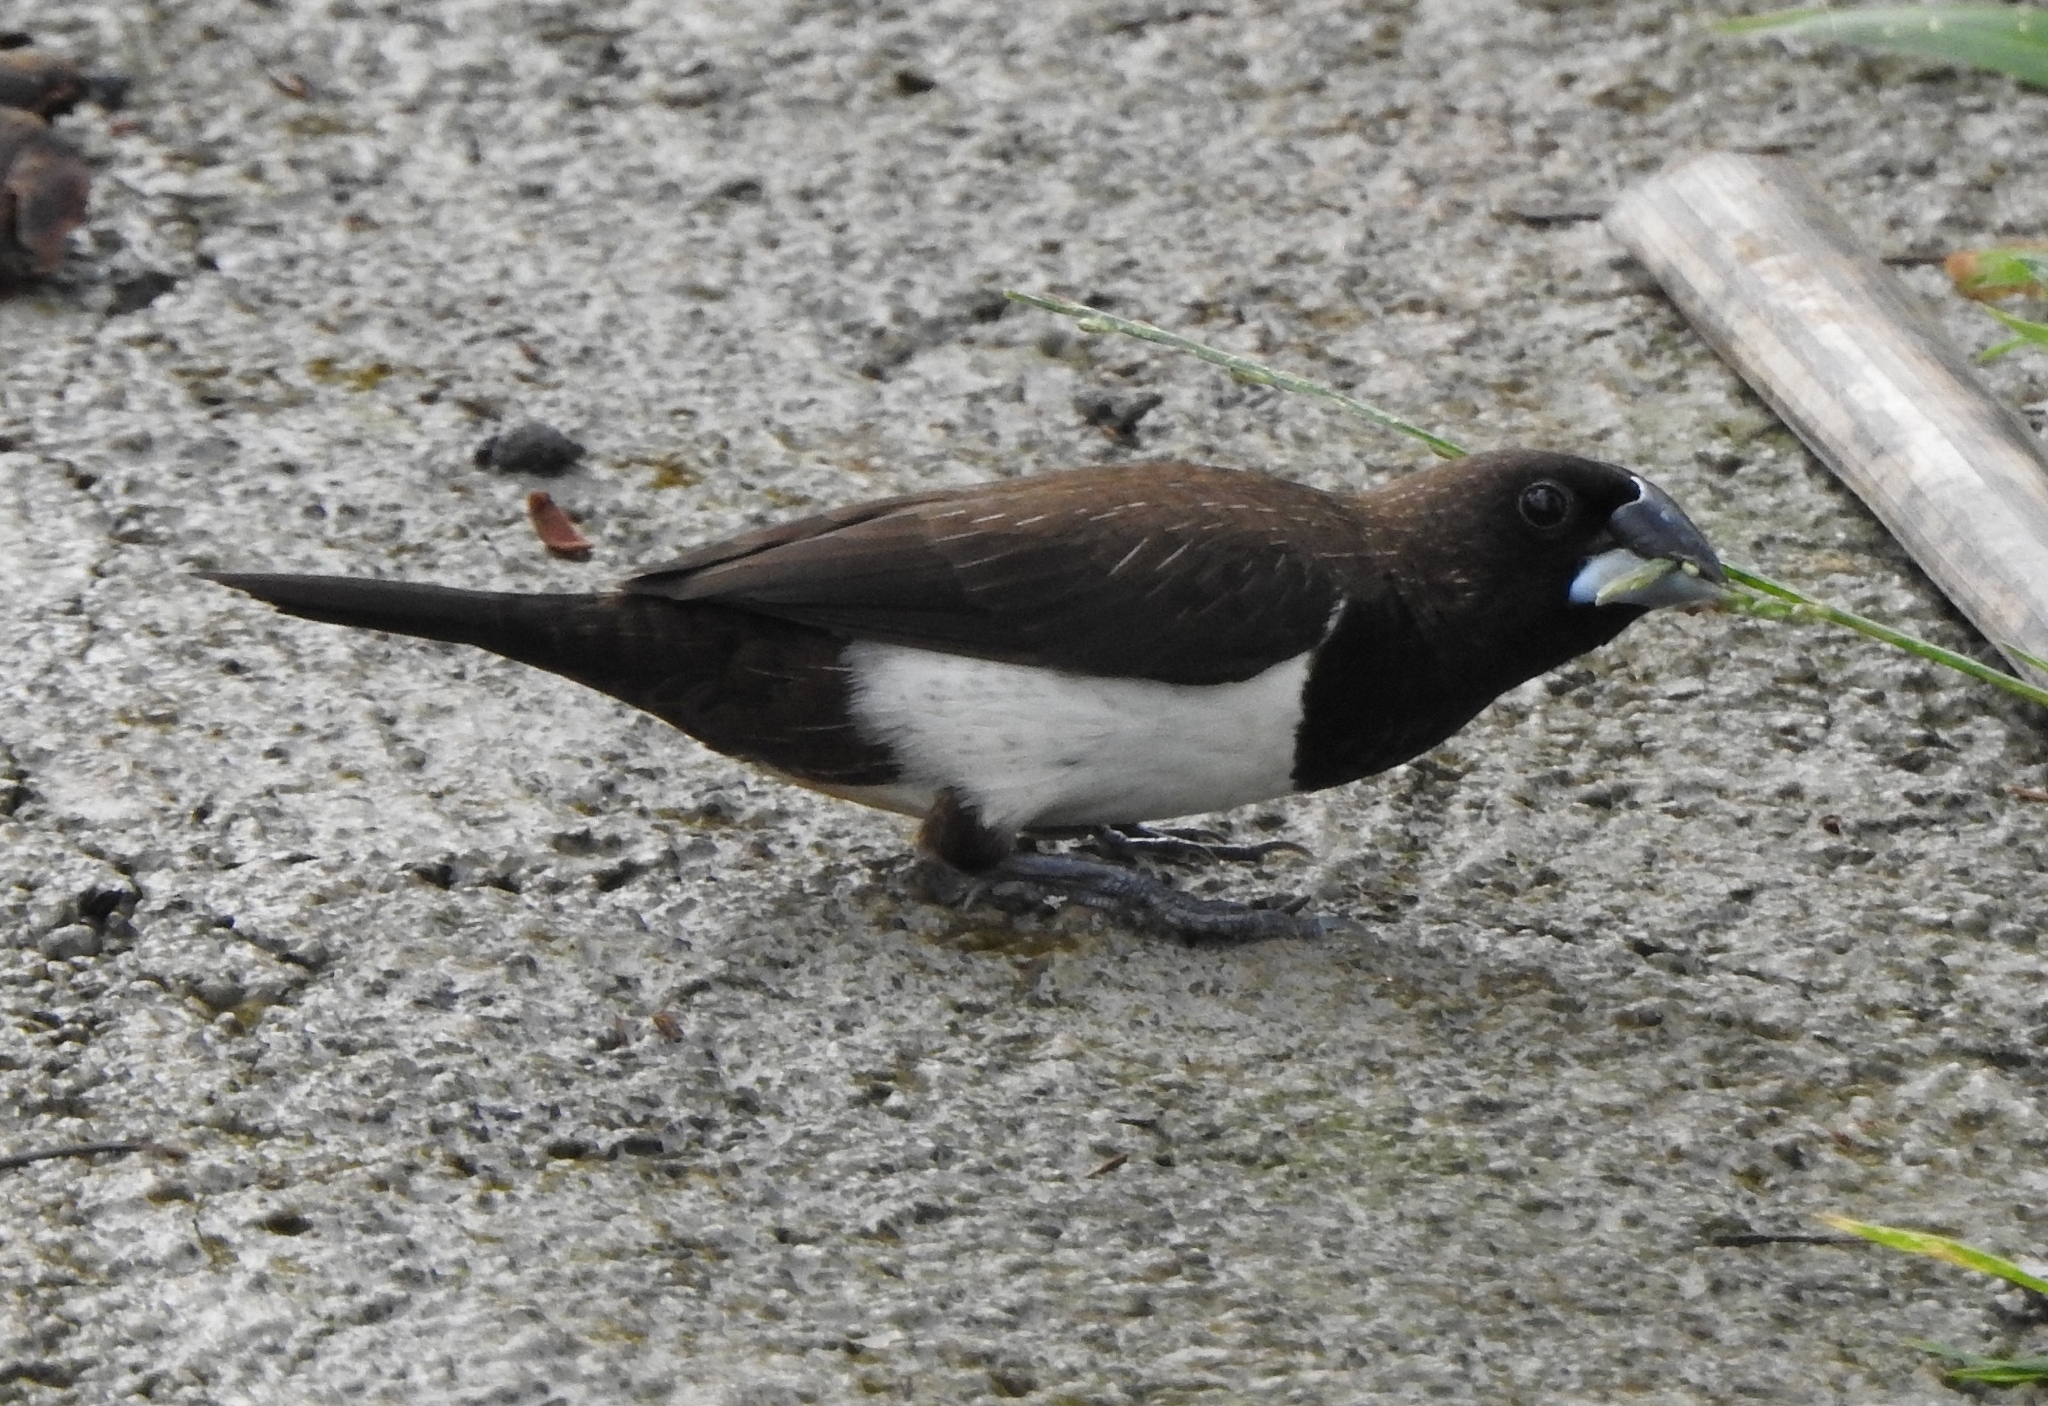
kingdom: Animalia
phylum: Chordata
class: Aves
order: Passeriformes
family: Estrildidae
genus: Lonchura
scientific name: Lonchura striata
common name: White-rumped munia
